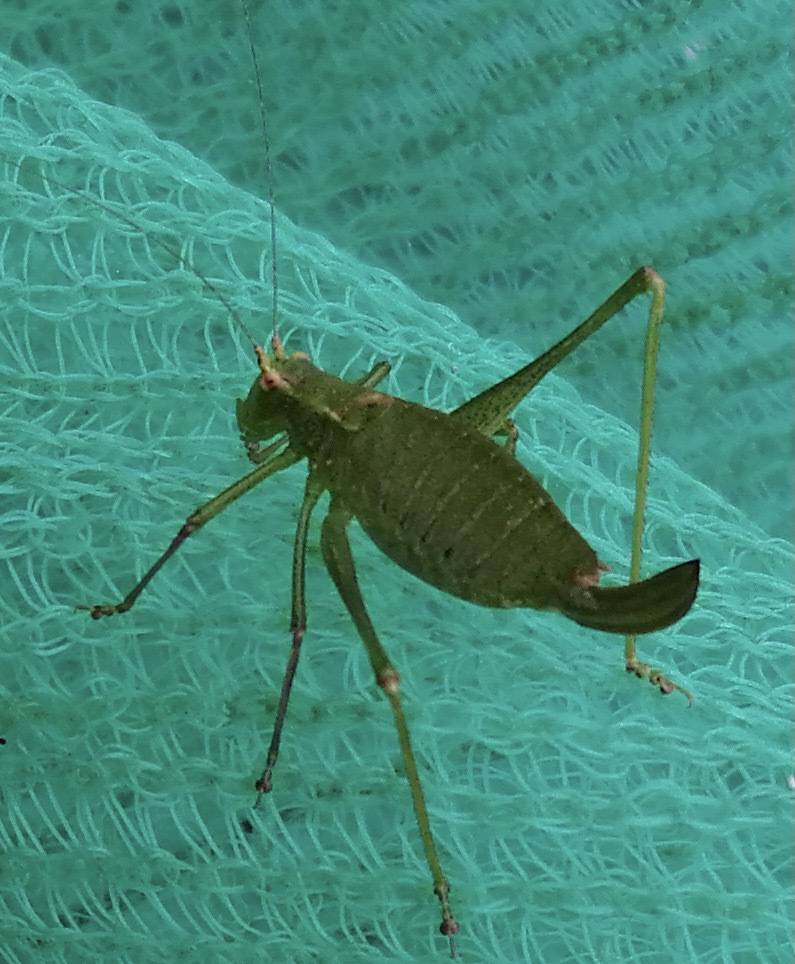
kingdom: Animalia
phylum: Arthropoda
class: Insecta
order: Orthoptera
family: Tettigoniidae
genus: Leptophyes
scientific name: Leptophyes punctatissima
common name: Speckled bush-cricket
